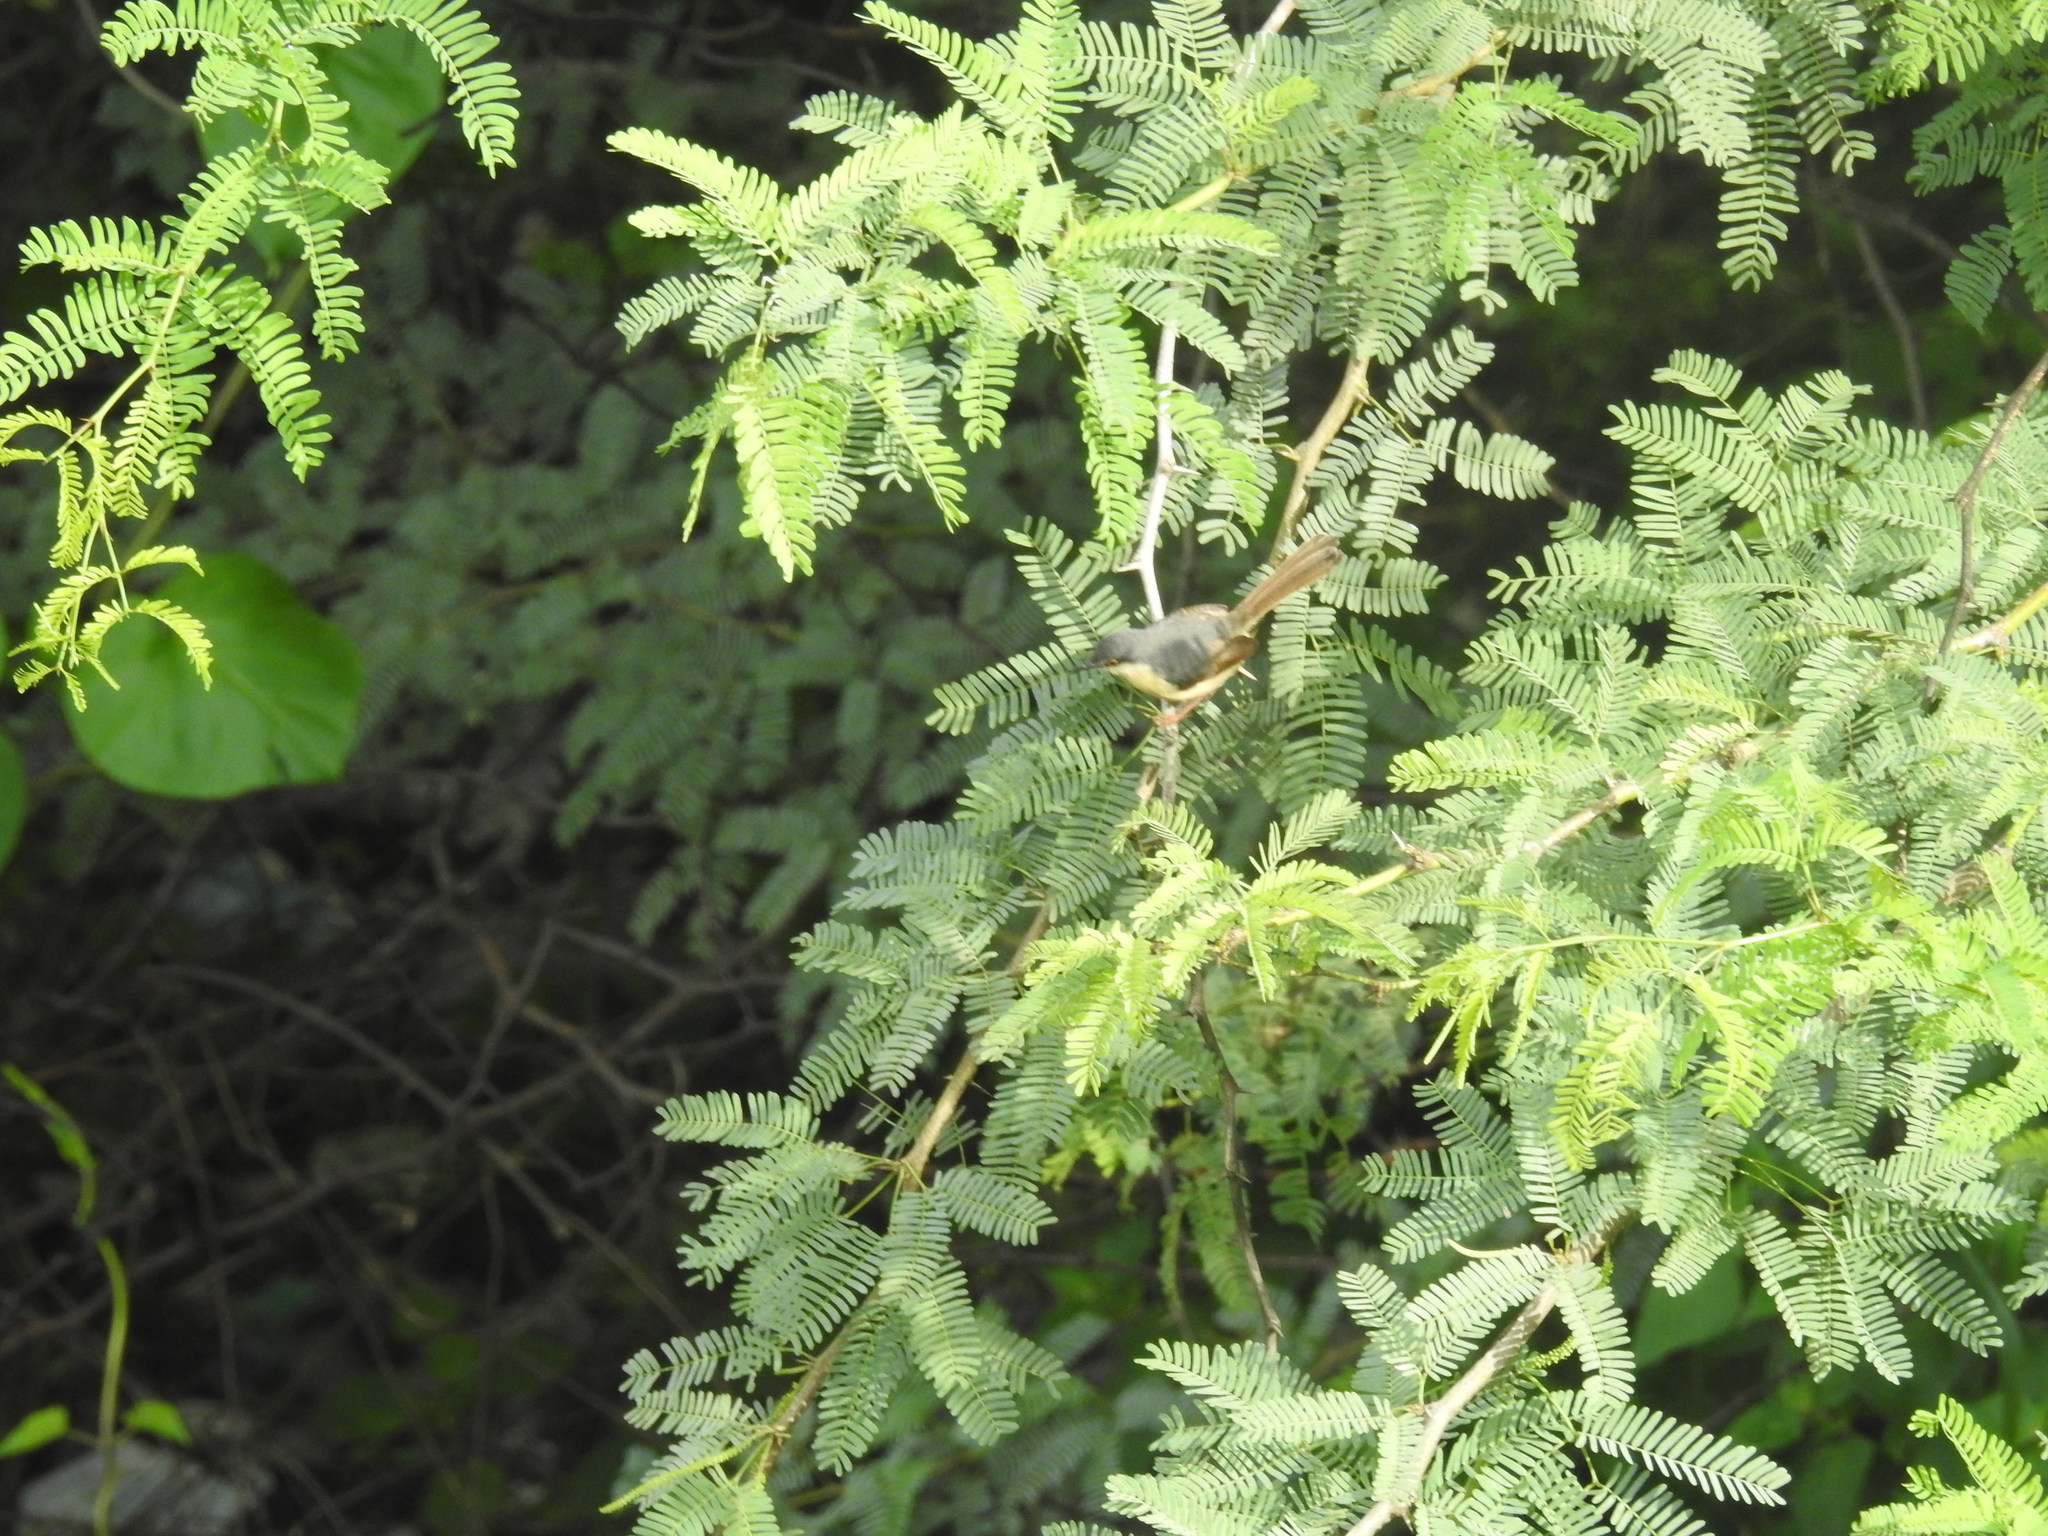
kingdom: Animalia
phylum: Chordata
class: Aves
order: Passeriformes
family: Cisticolidae
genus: Prinia
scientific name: Prinia socialis
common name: Ashy prinia
